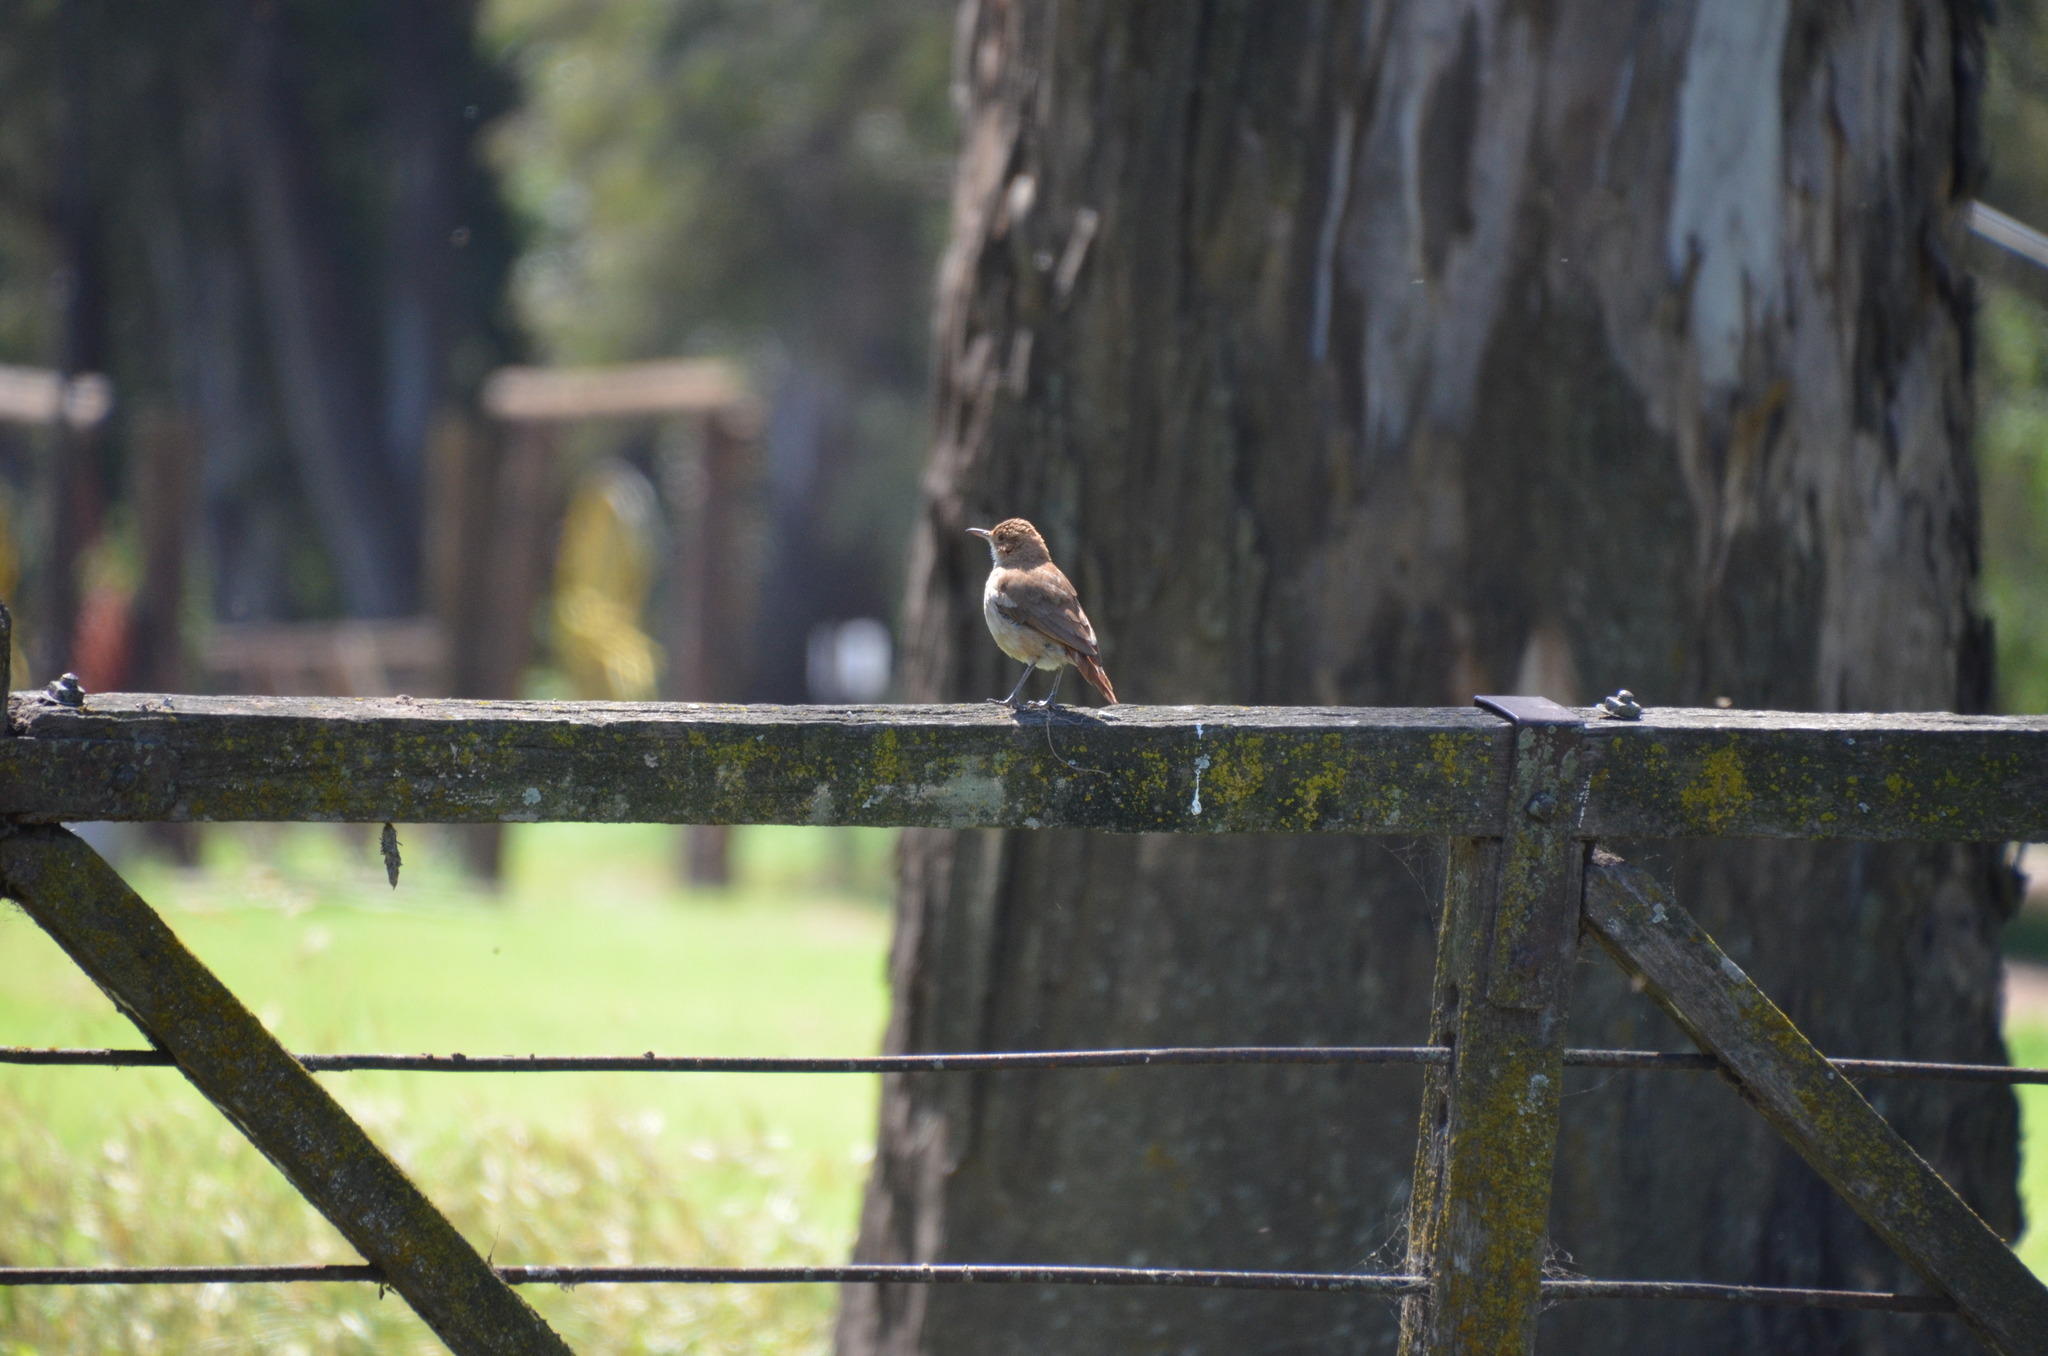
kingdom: Animalia
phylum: Chordata
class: Aves
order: Passeriformes
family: Furnariidae
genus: Furnarius
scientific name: Furnarius rufus
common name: Rufous hornero
